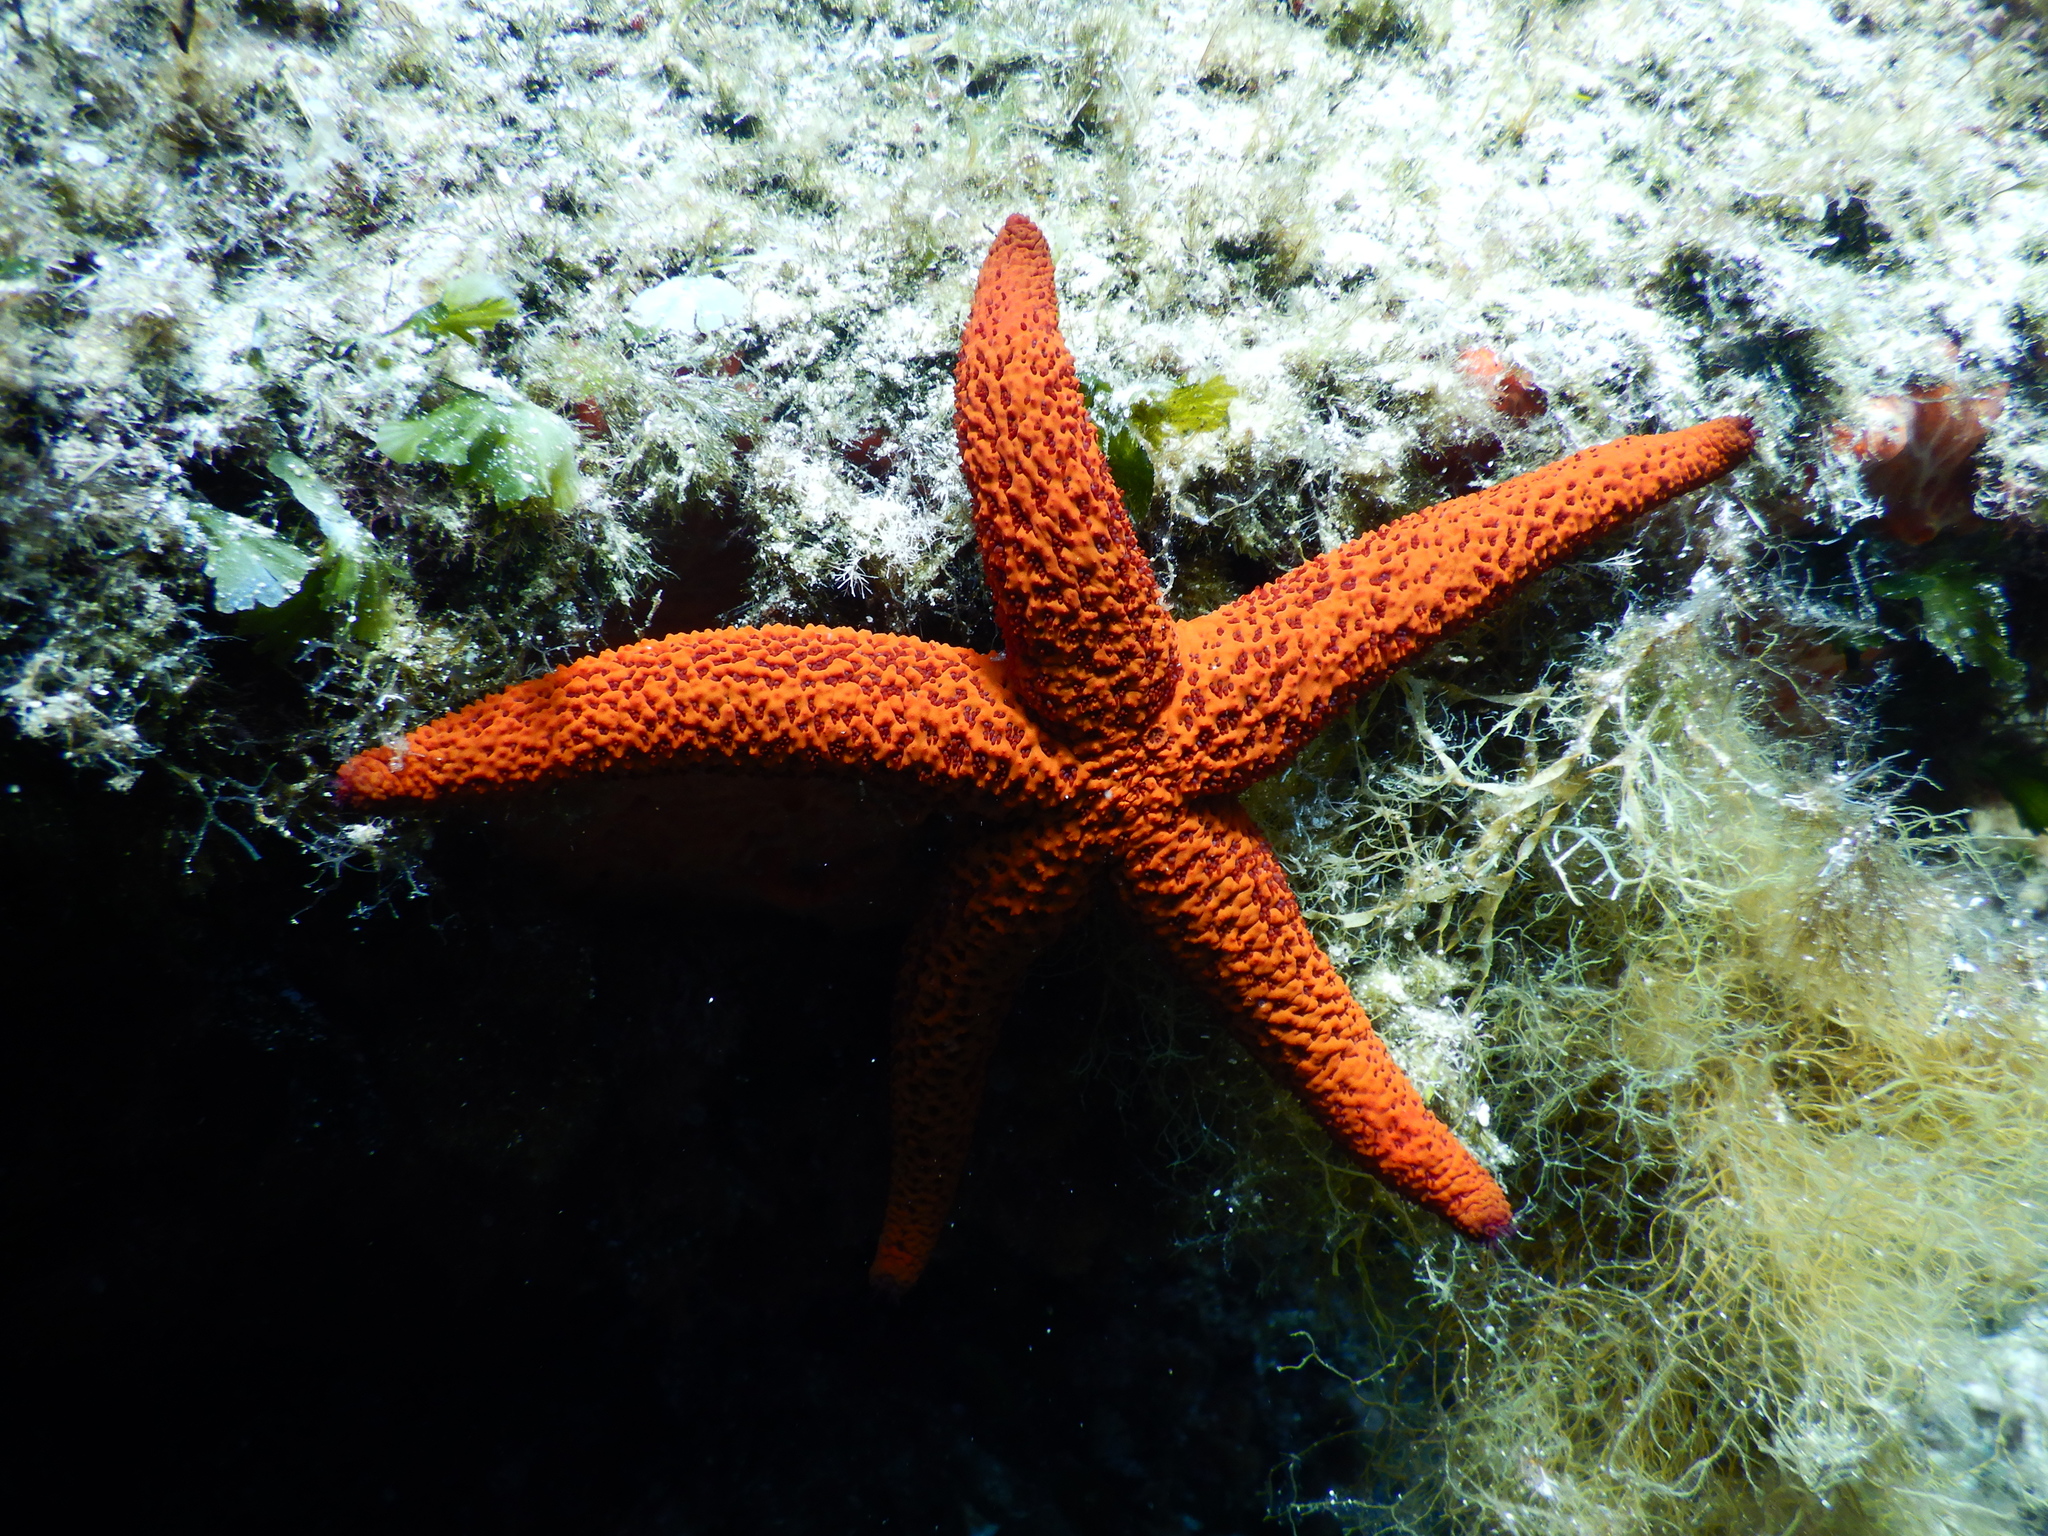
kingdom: Animalia
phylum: Echinodermata
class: Asteroidea
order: Spinulosida
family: Echinasteridae
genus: Echinaster
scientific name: Echinaster sepositus
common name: Red starfish
